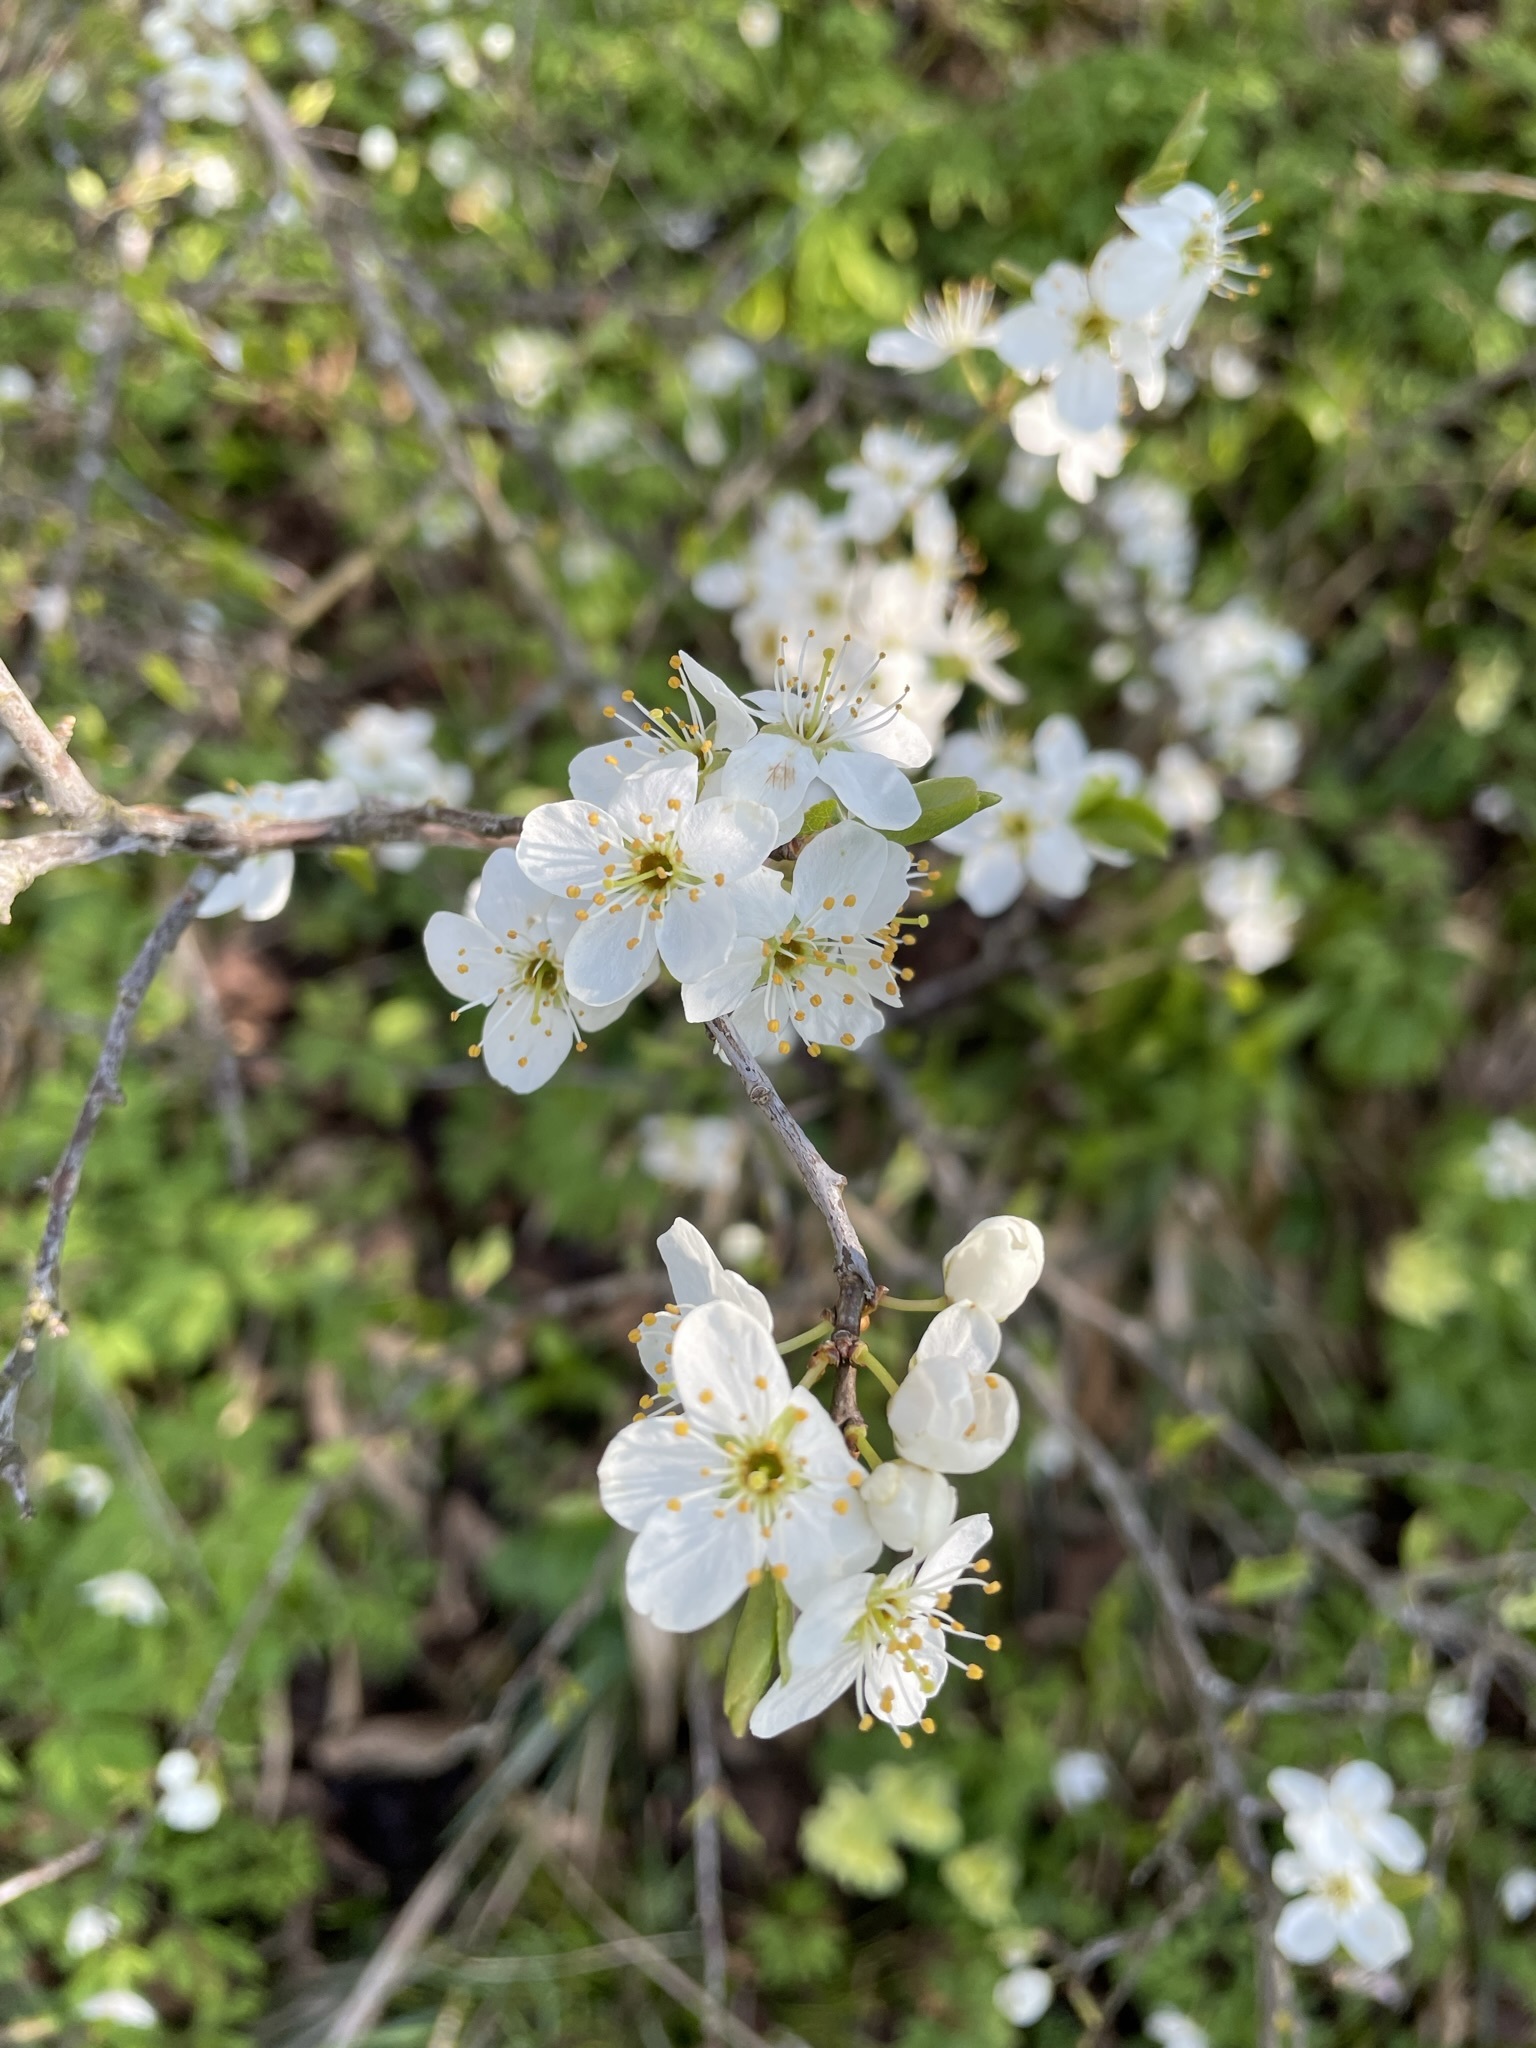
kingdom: Plantae
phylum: Tracheophyta
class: Magnoliopsida
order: Rosales
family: Rosaceae
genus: Prunus
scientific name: Prunus spinosa
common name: Blackthorn
